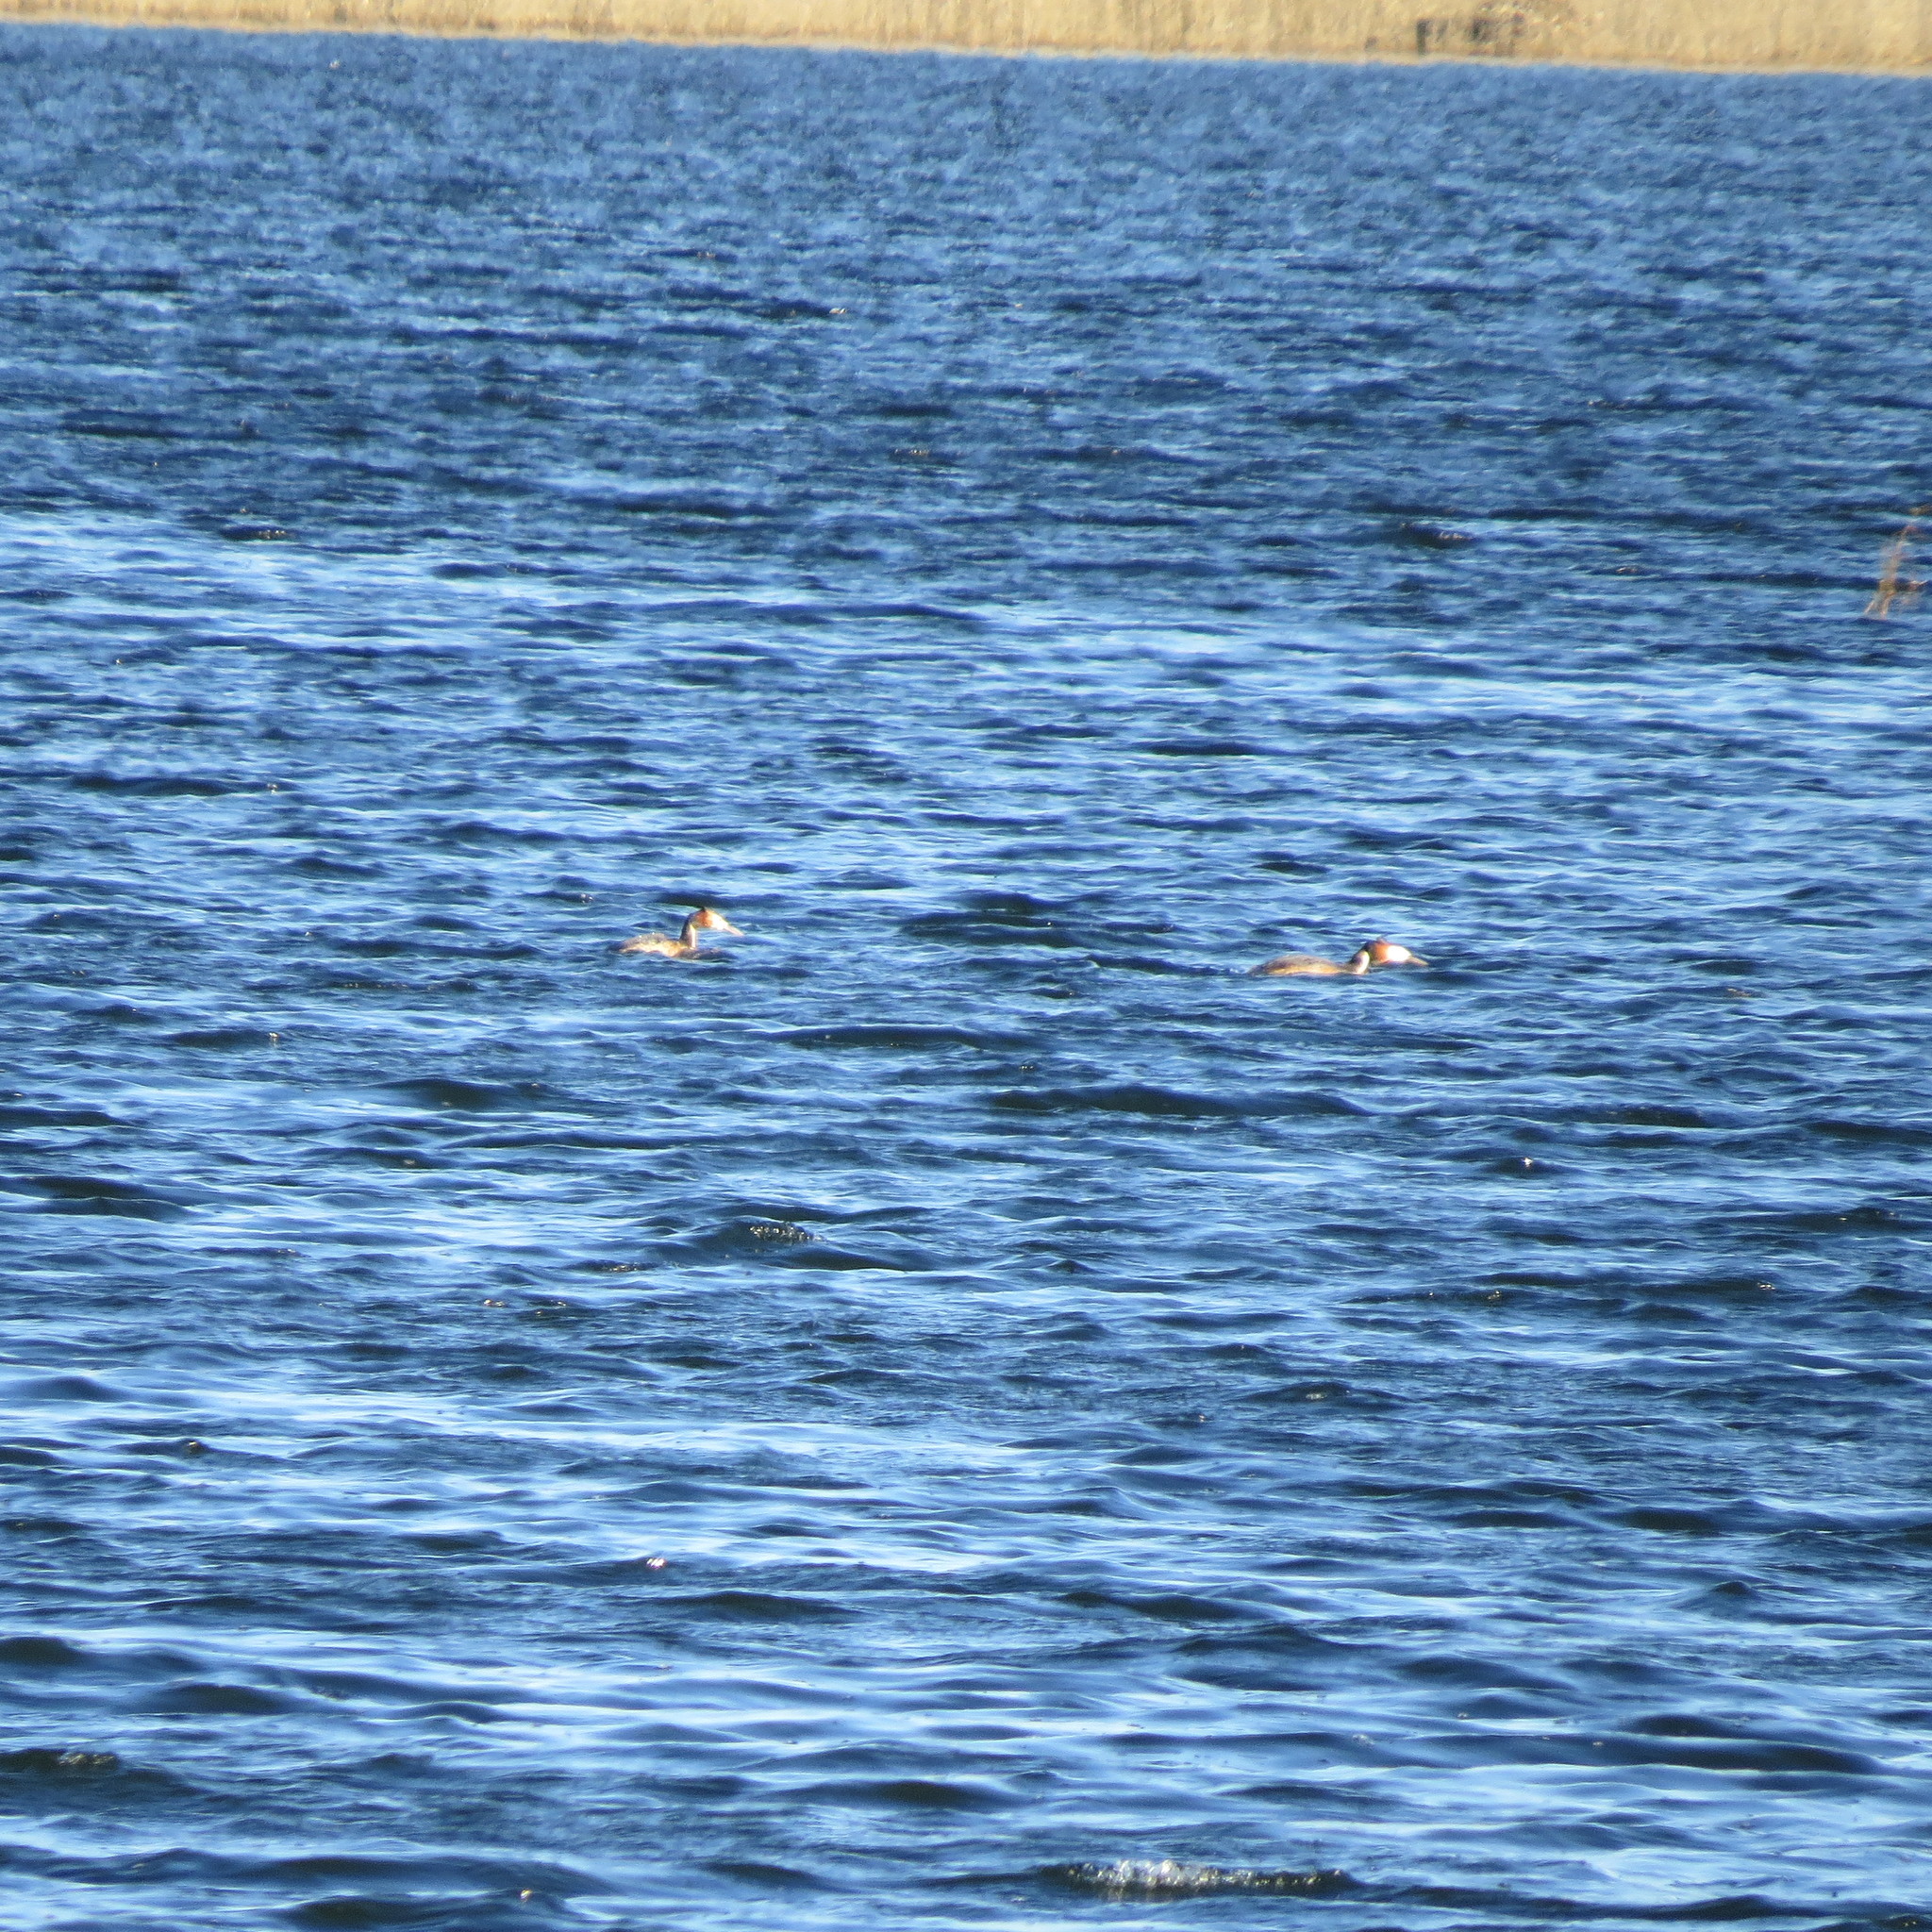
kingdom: Animalia
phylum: Chordata
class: Aves
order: Podicipediformes
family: Podicipedidae
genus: Podiceps
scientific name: Podiceps cristatus
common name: Great crested grebe
